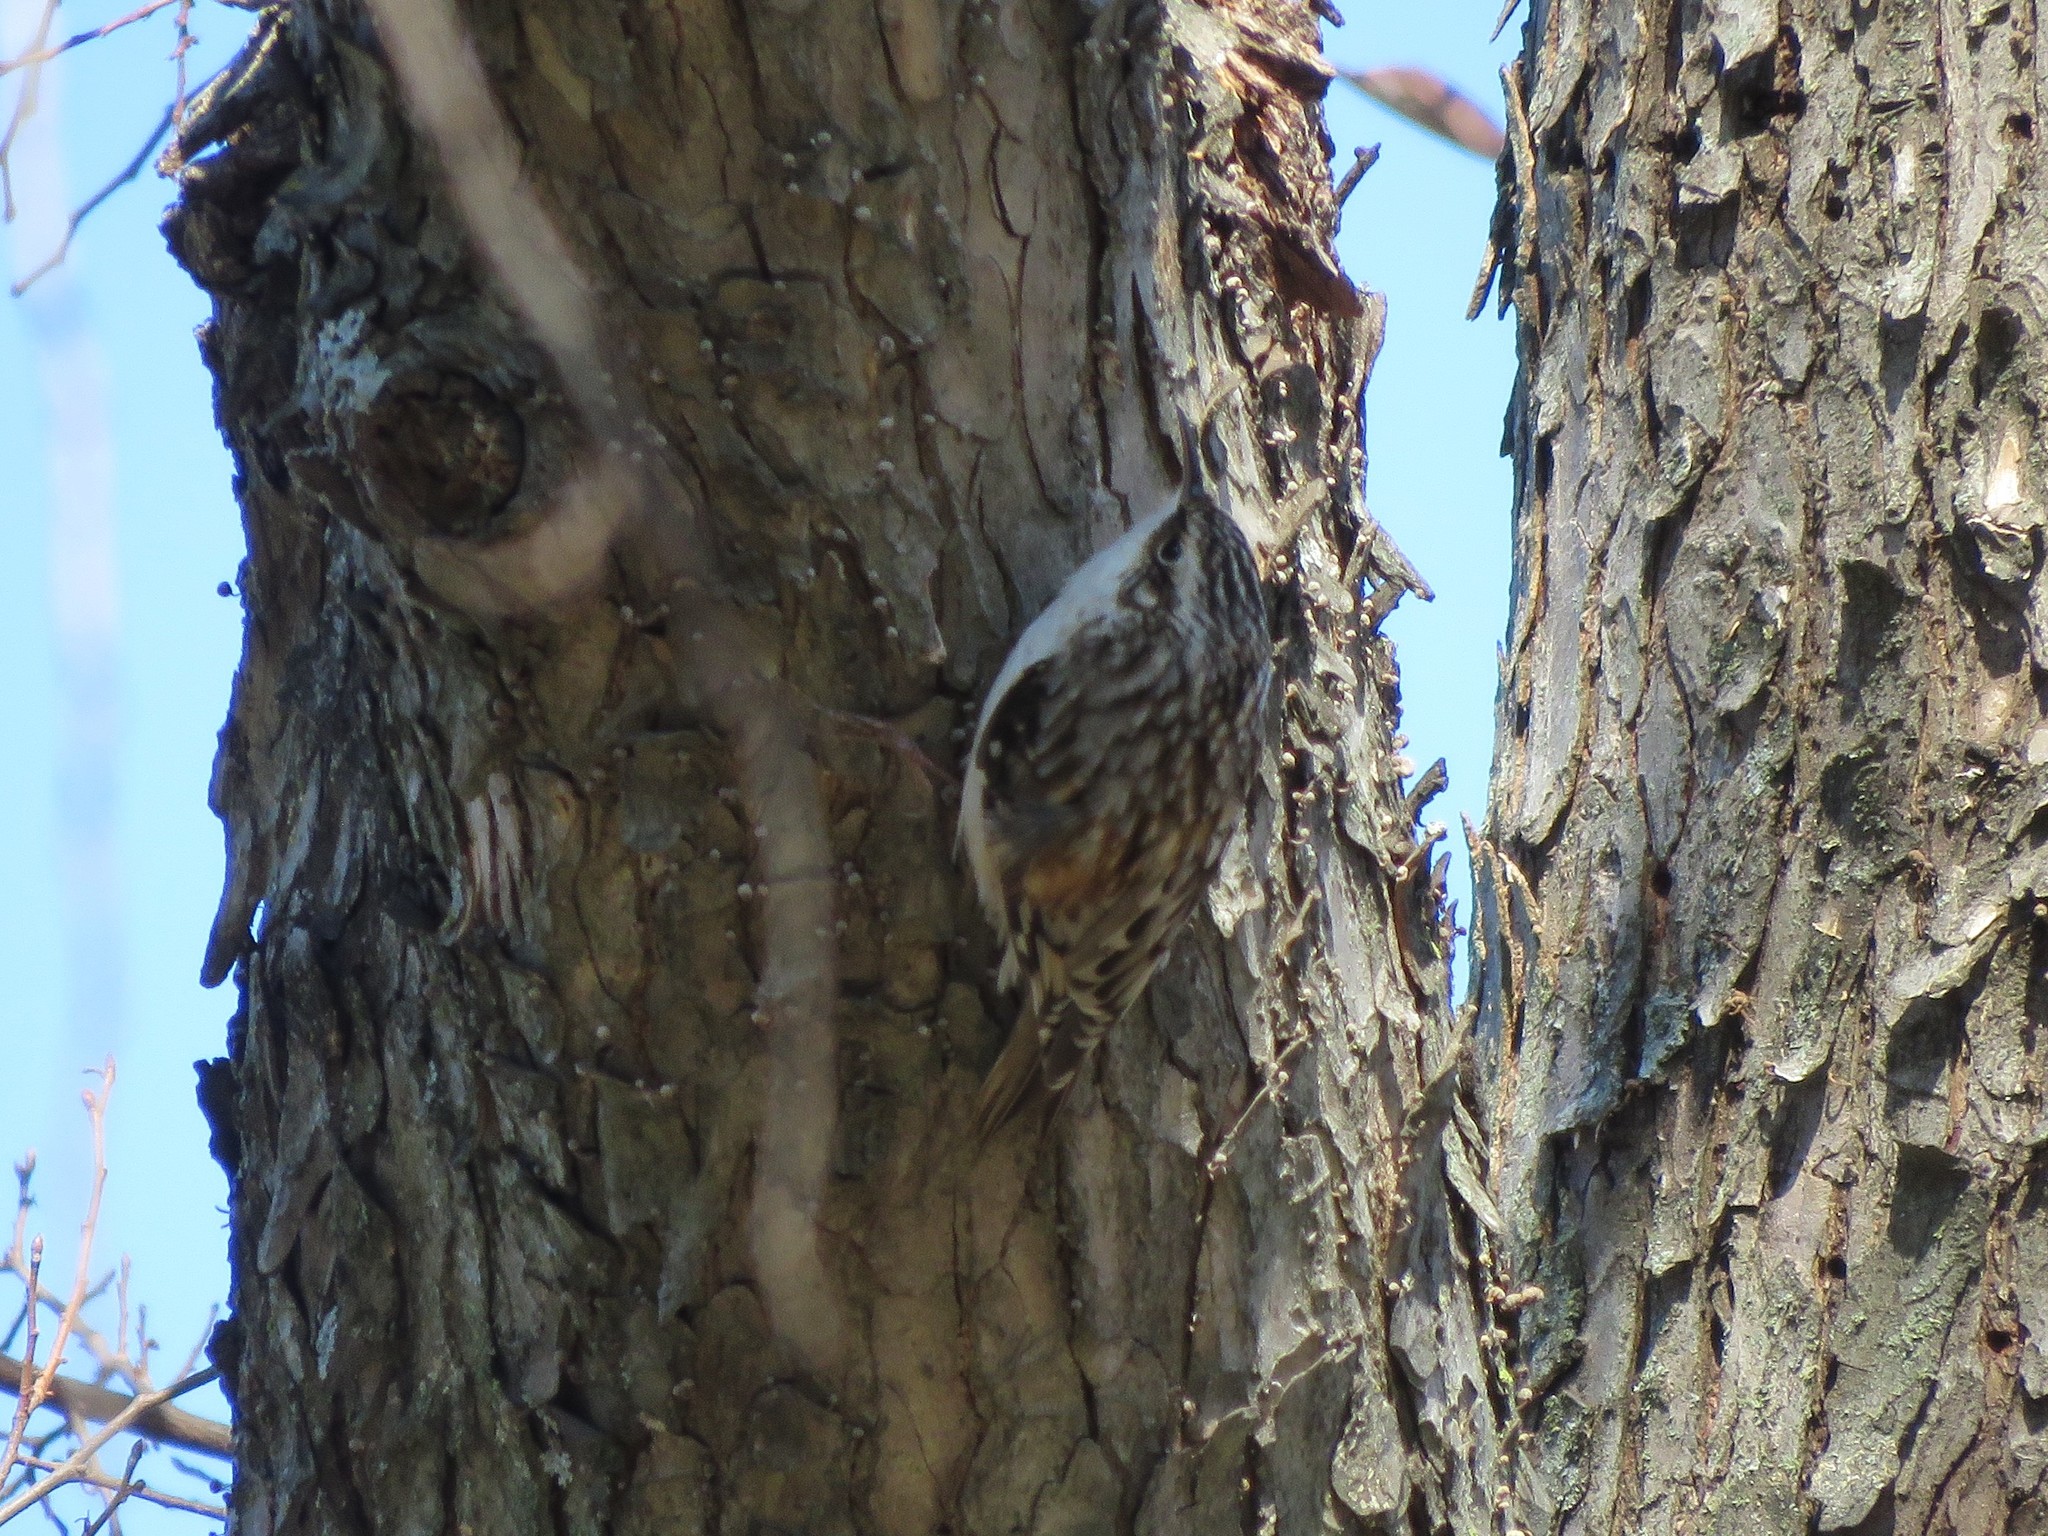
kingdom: Animalia
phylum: Chordata
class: Aves
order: Passeriformes
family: Certhiidae
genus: Certhia
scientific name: Certhia americana
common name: Brown creeper
